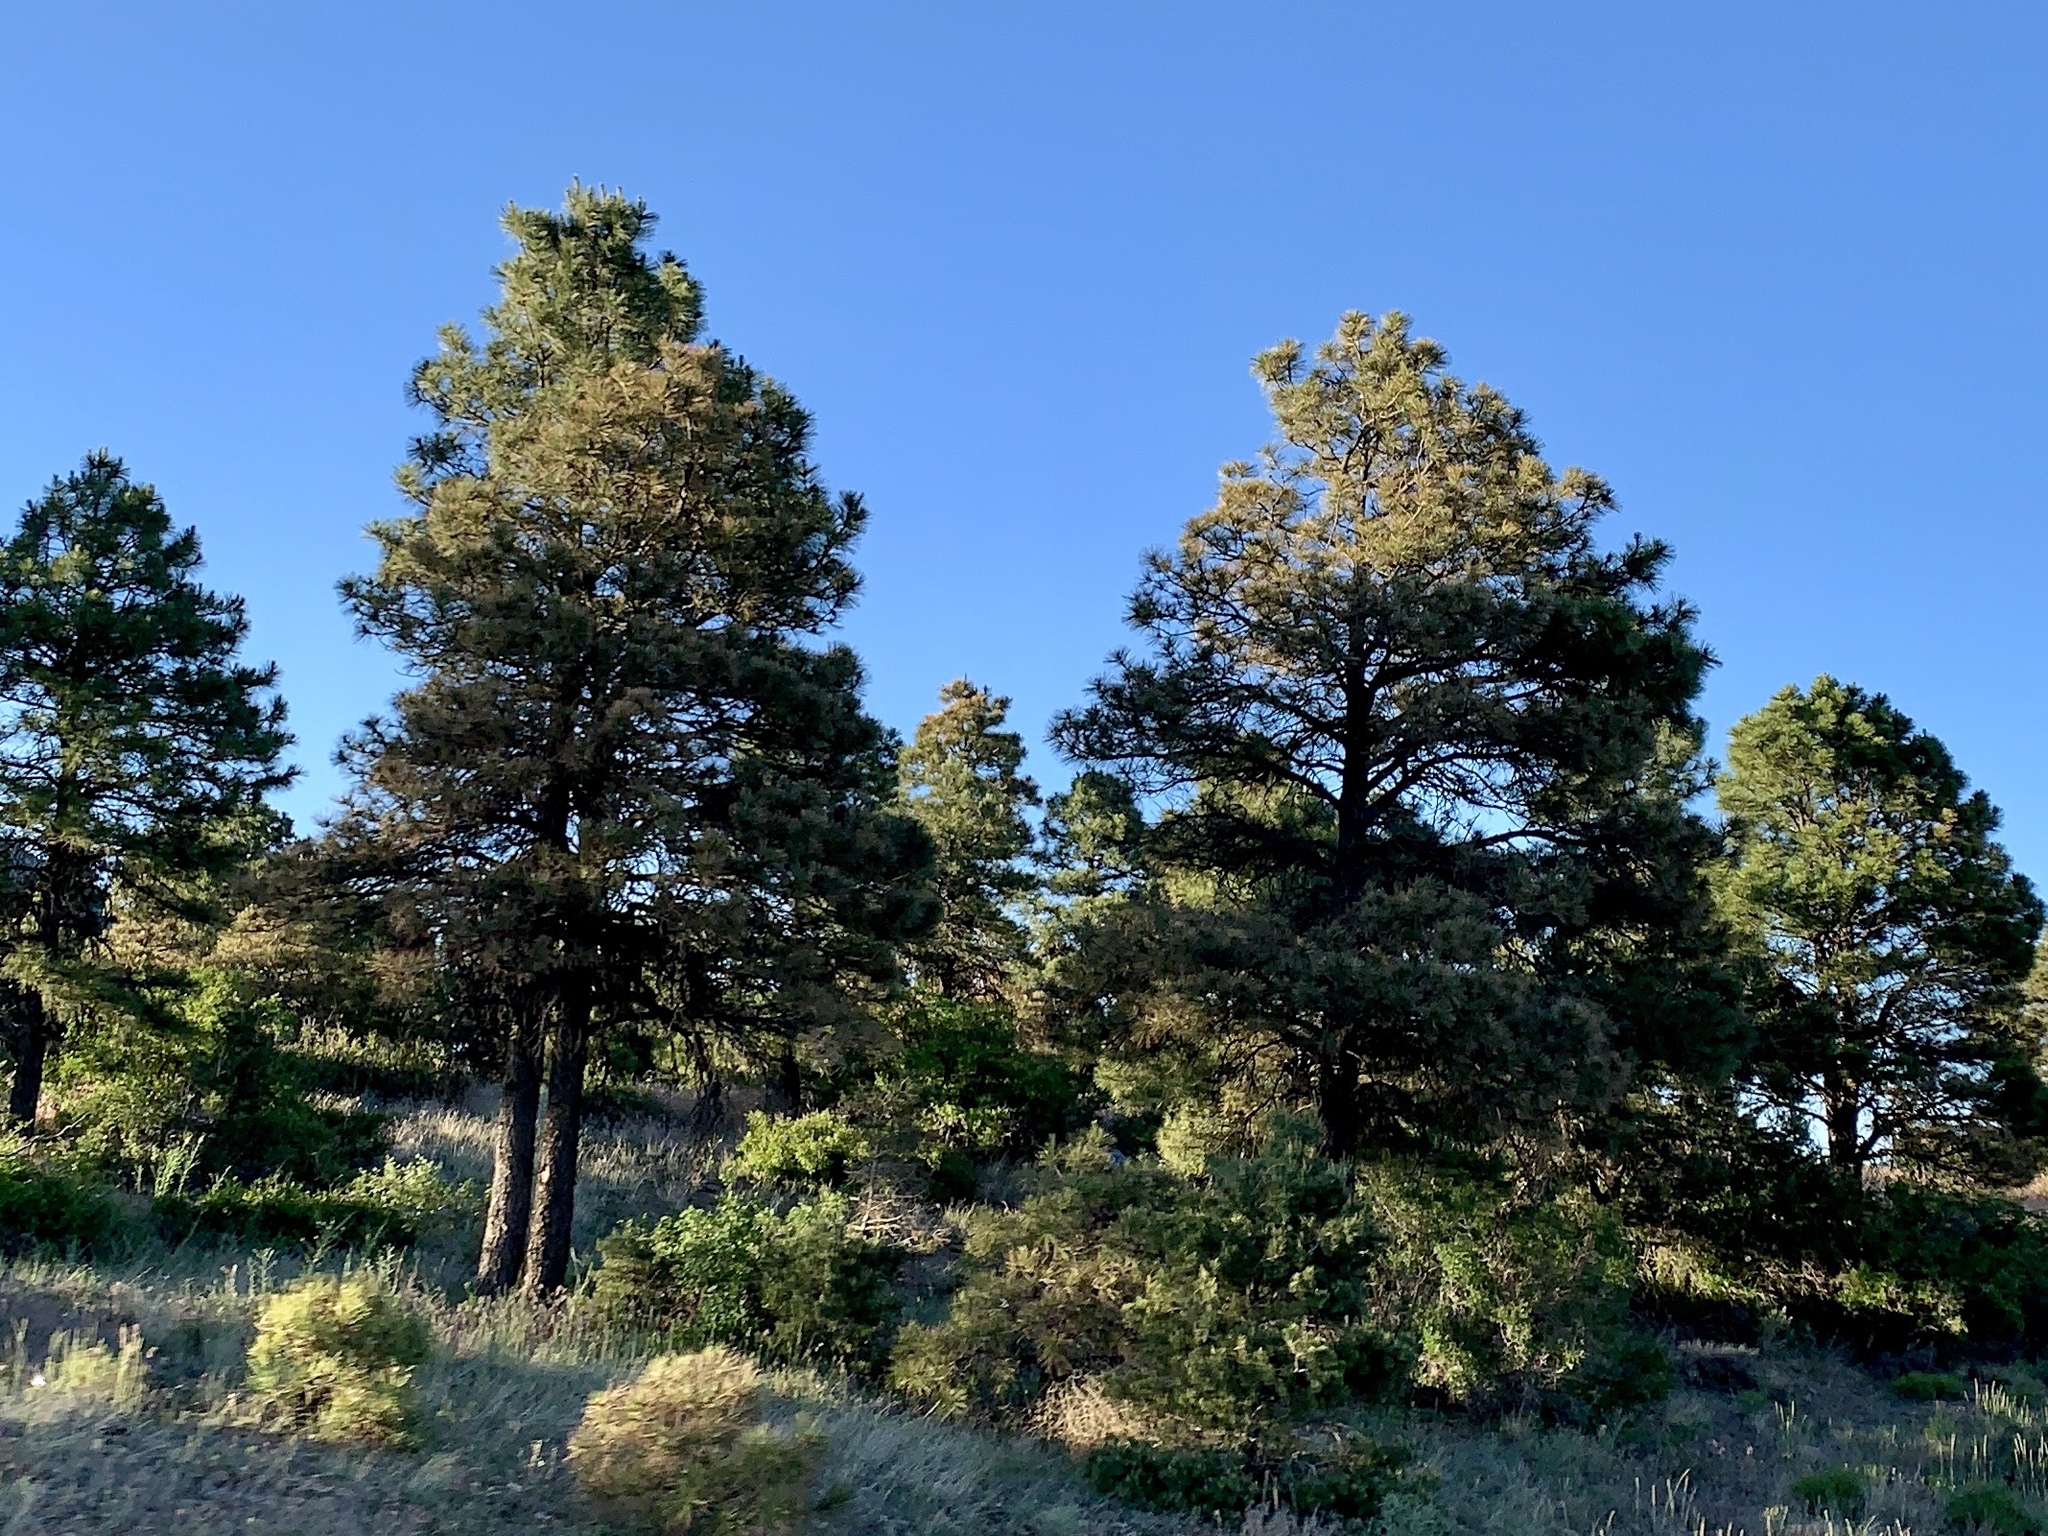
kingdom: Plantae
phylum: Tracheophyta
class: Pinopsida
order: Pinales
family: Pinaceae
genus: Pinus
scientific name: Pinus ponderosa
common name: Western yellow-pine
